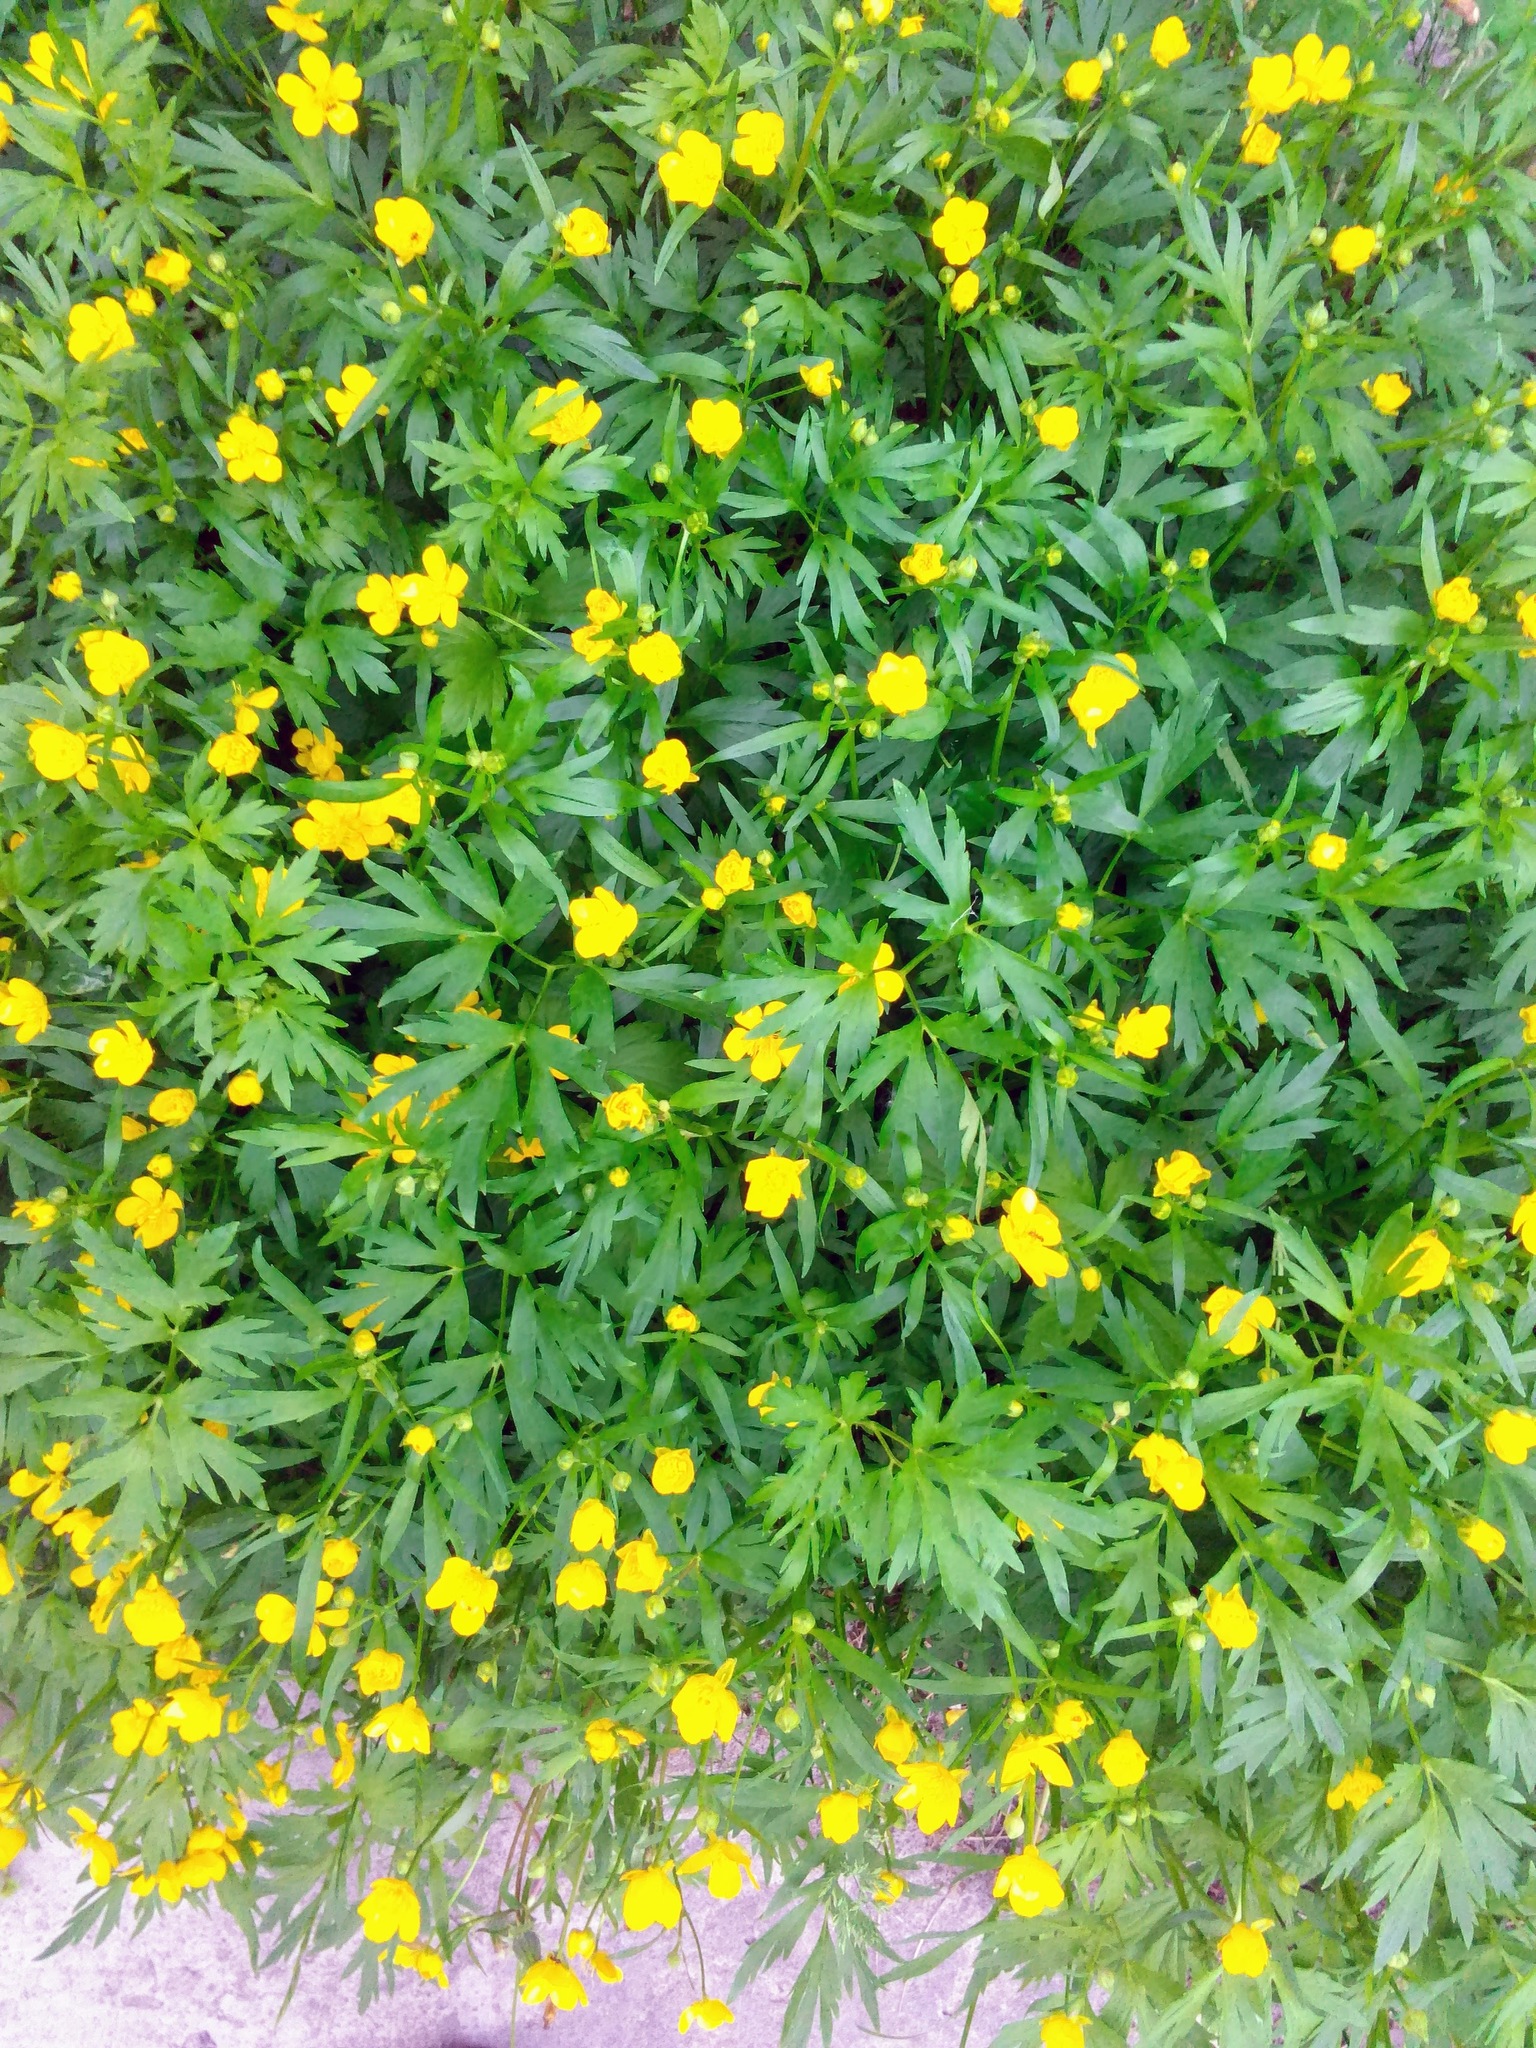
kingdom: Plantae
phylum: Tracheophyta
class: Magnoliopsida
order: Ranunculales
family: Ranunculaceae
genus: Ranunculus
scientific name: Ranunculus repens
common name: Creeping buttercup
